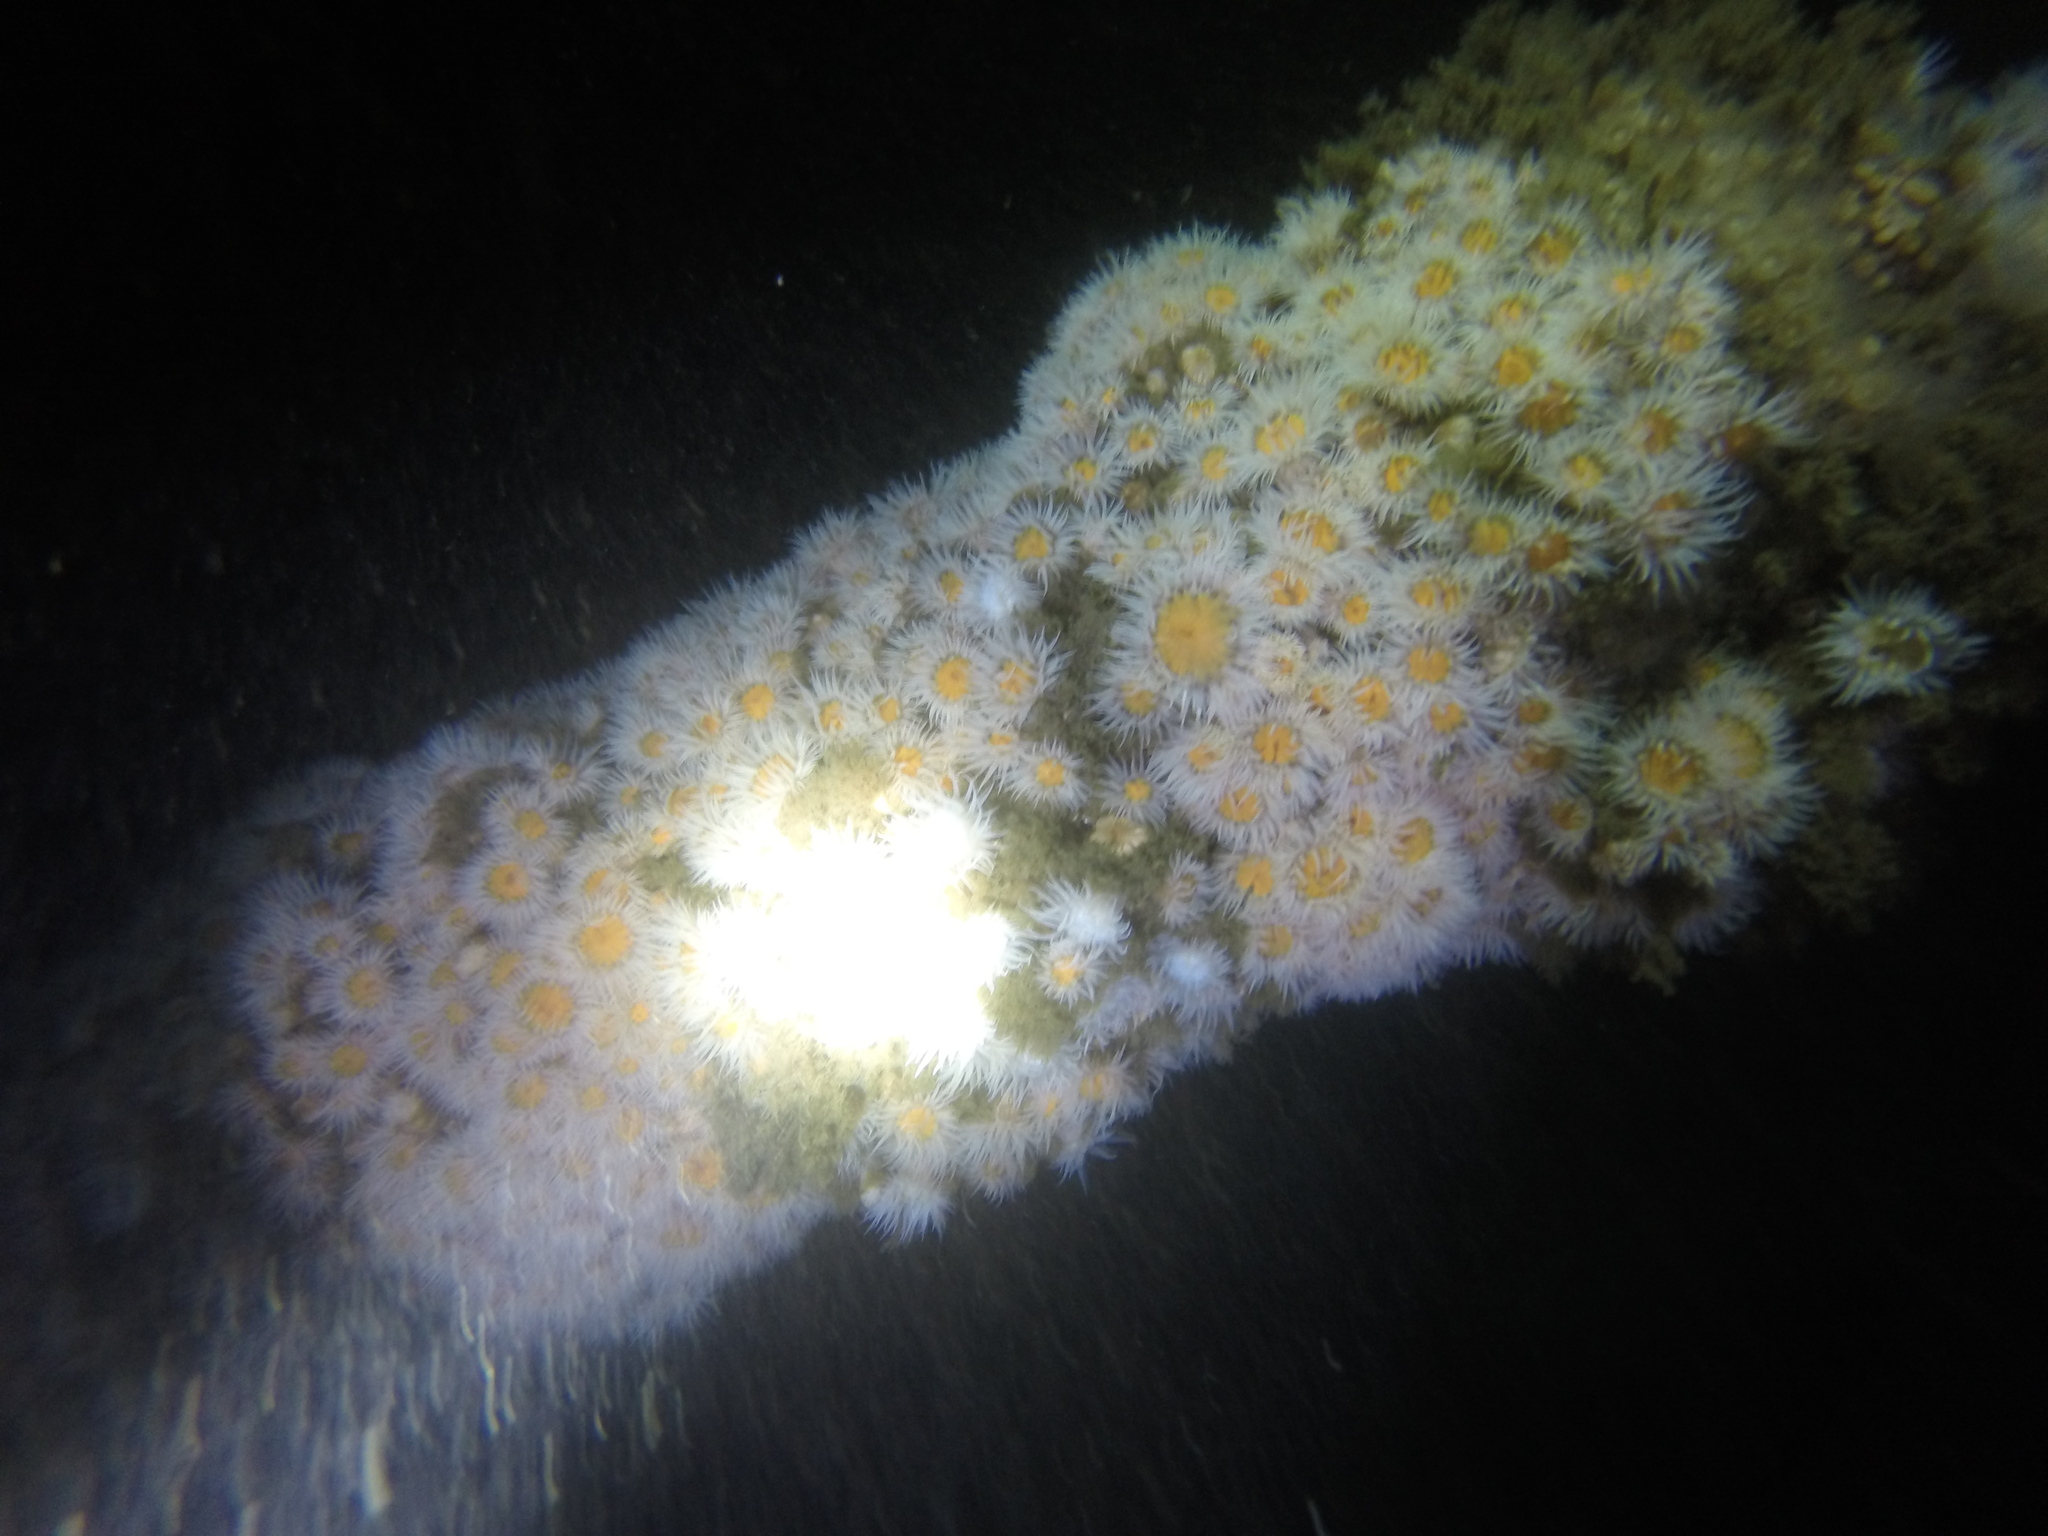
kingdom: Animalia
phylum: Cnidaria
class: Anthozoa
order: Actiniaria
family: Sagartiidae
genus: Actinothoe
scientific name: Actinothoe sphyrodeta
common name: Sandalled anemone
